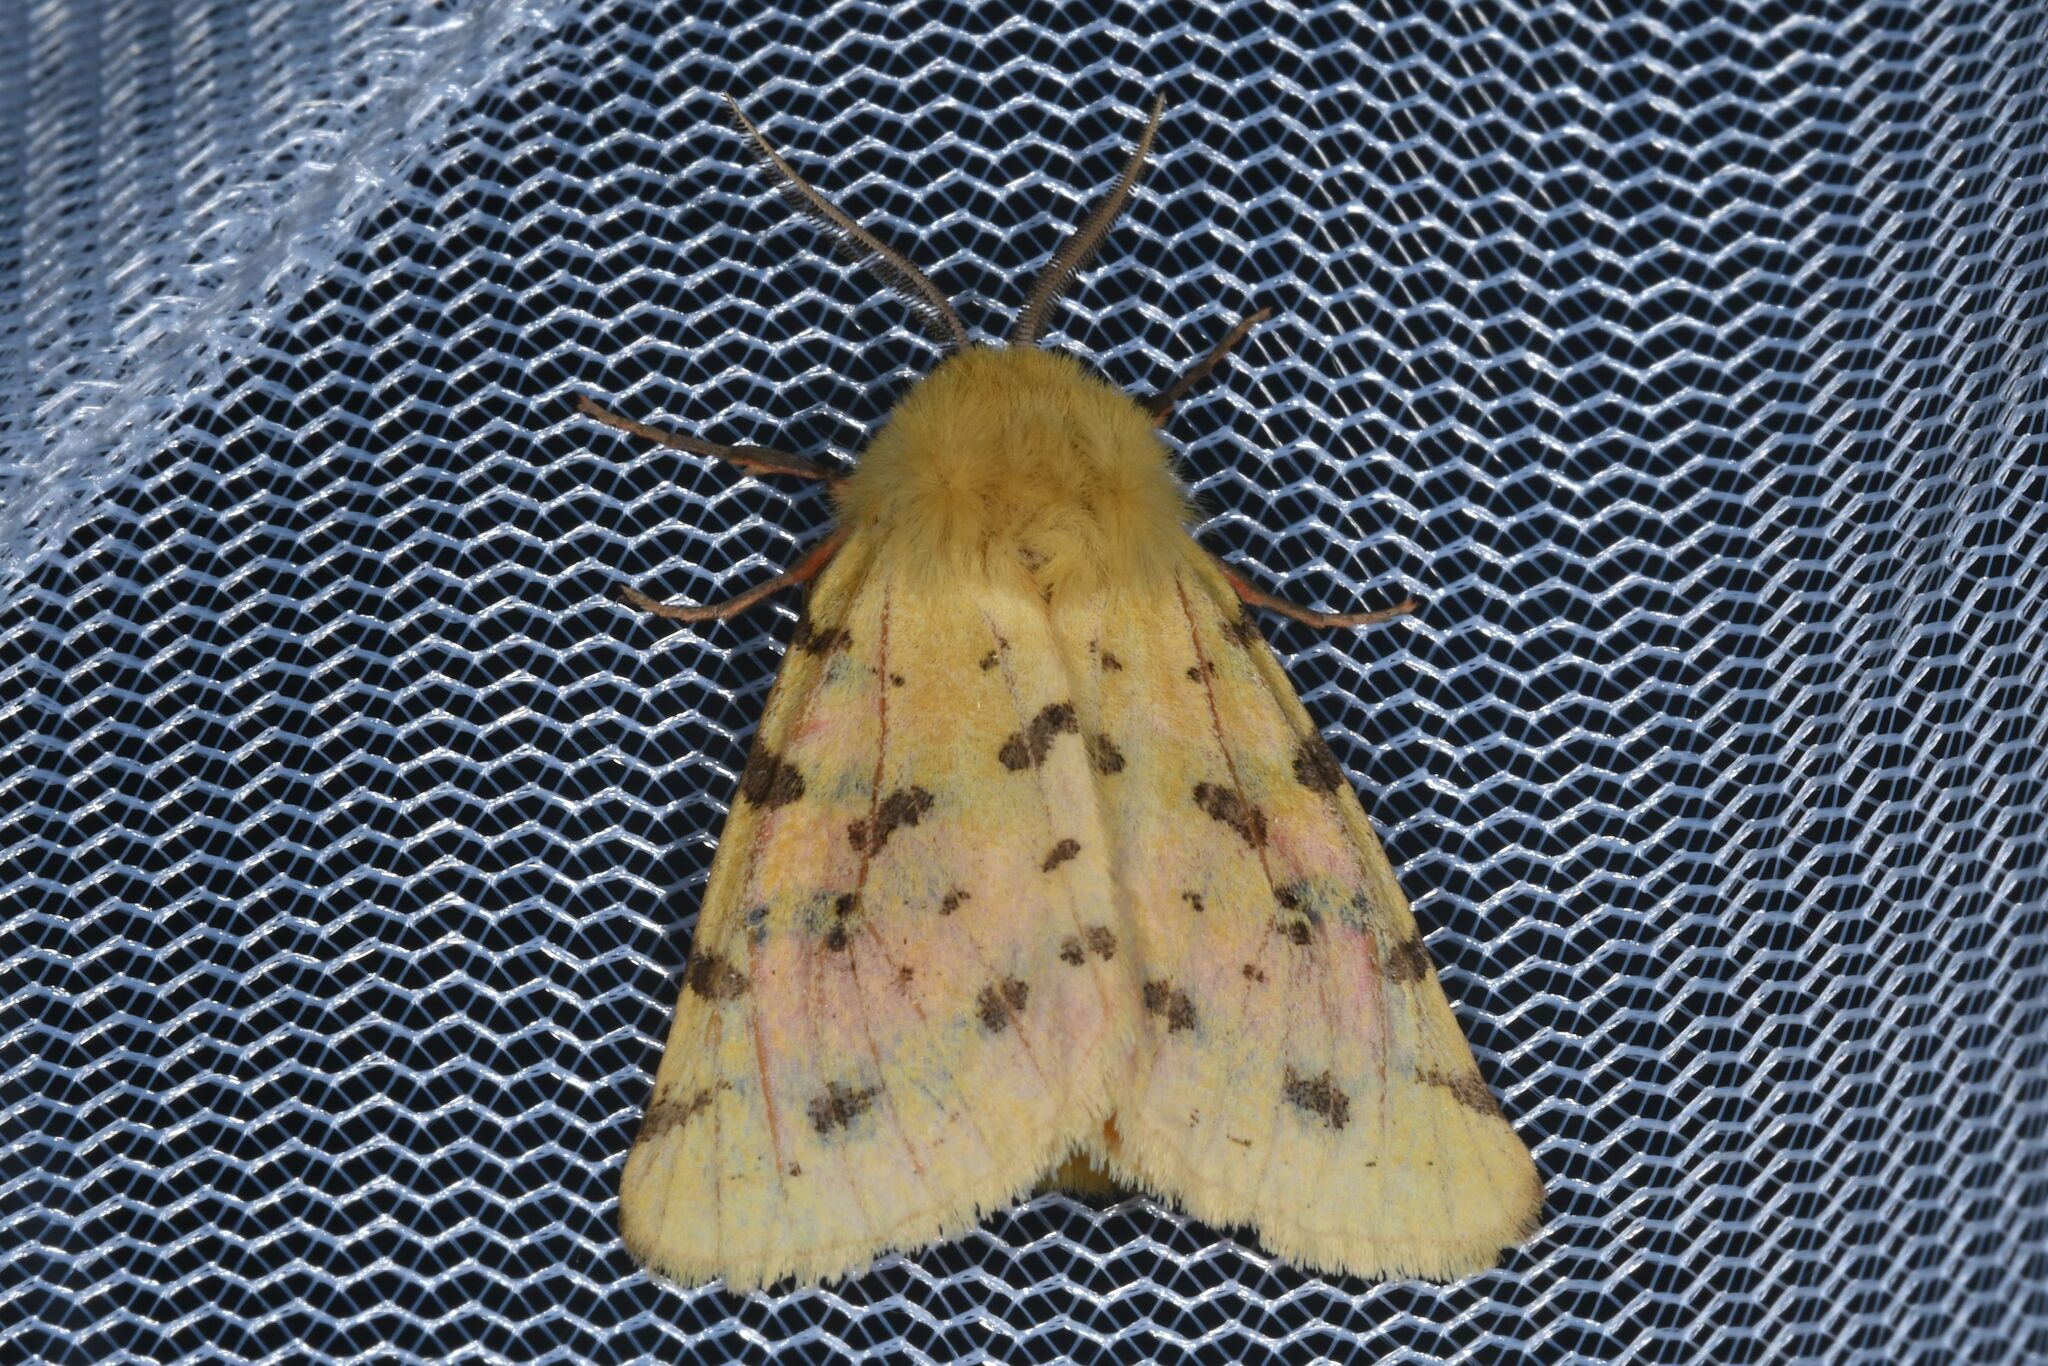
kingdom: Animalia
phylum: Arthropoda
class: Insecta
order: Lepidoptera
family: Erebidae
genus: Rhyparia
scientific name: Rhyparia purpurata
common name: Purple tiger
